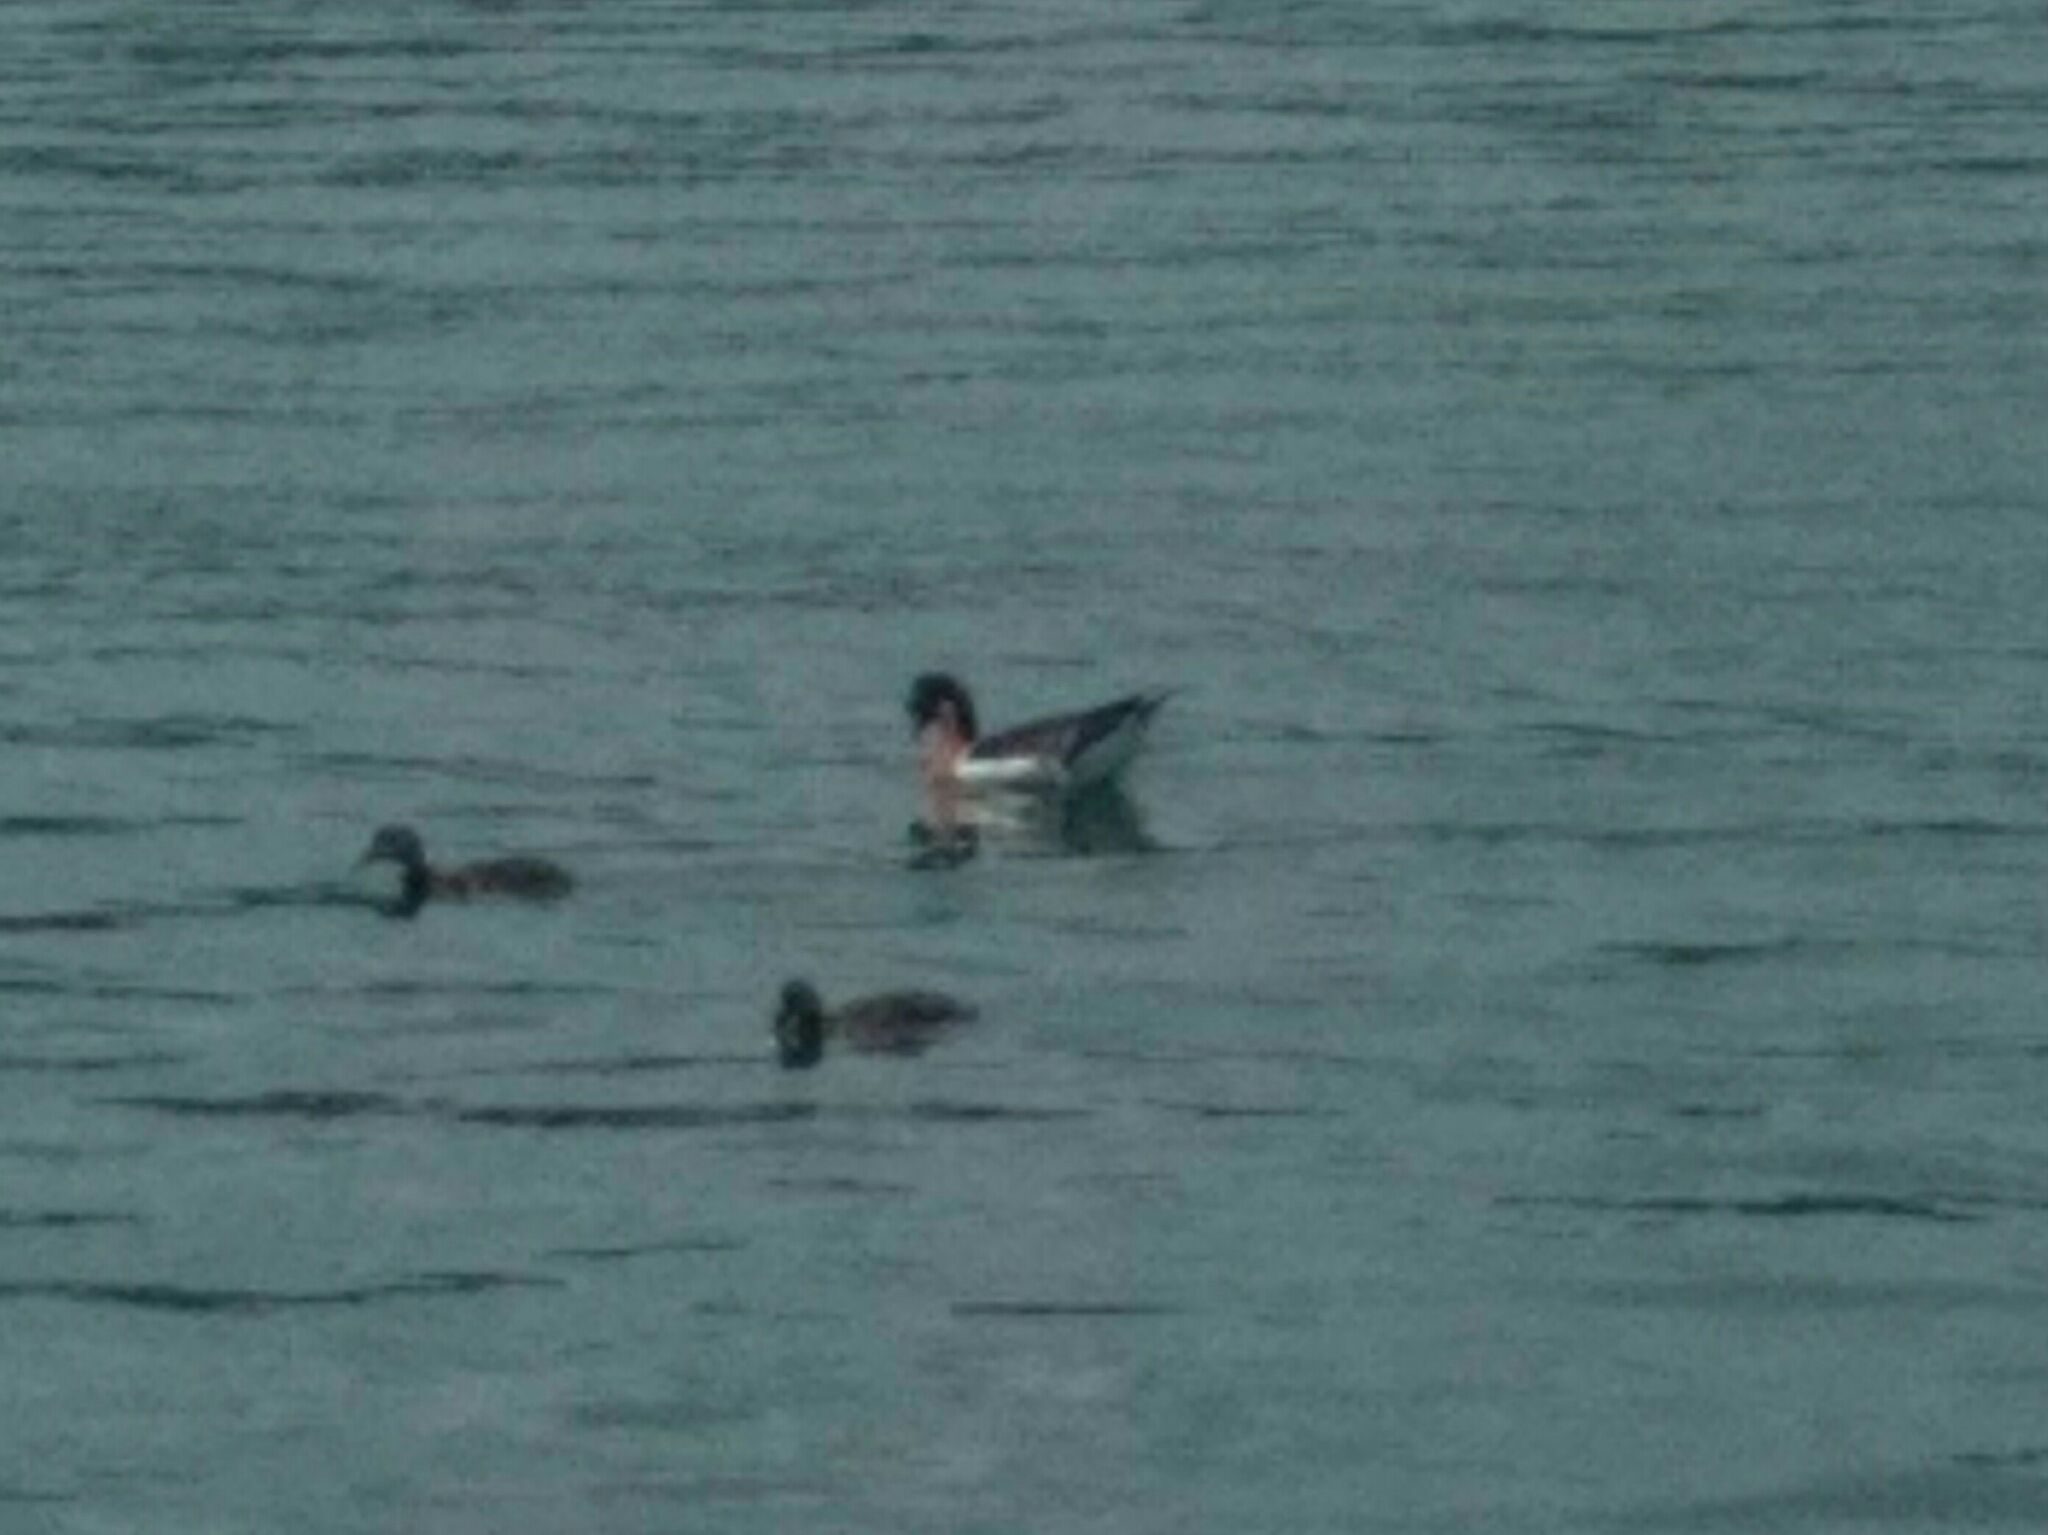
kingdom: Animalia
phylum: Chordata
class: Aves
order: Anseriformes
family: Anatidae
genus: Branta
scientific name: Branta ruficollis
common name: Red-breasted goose
